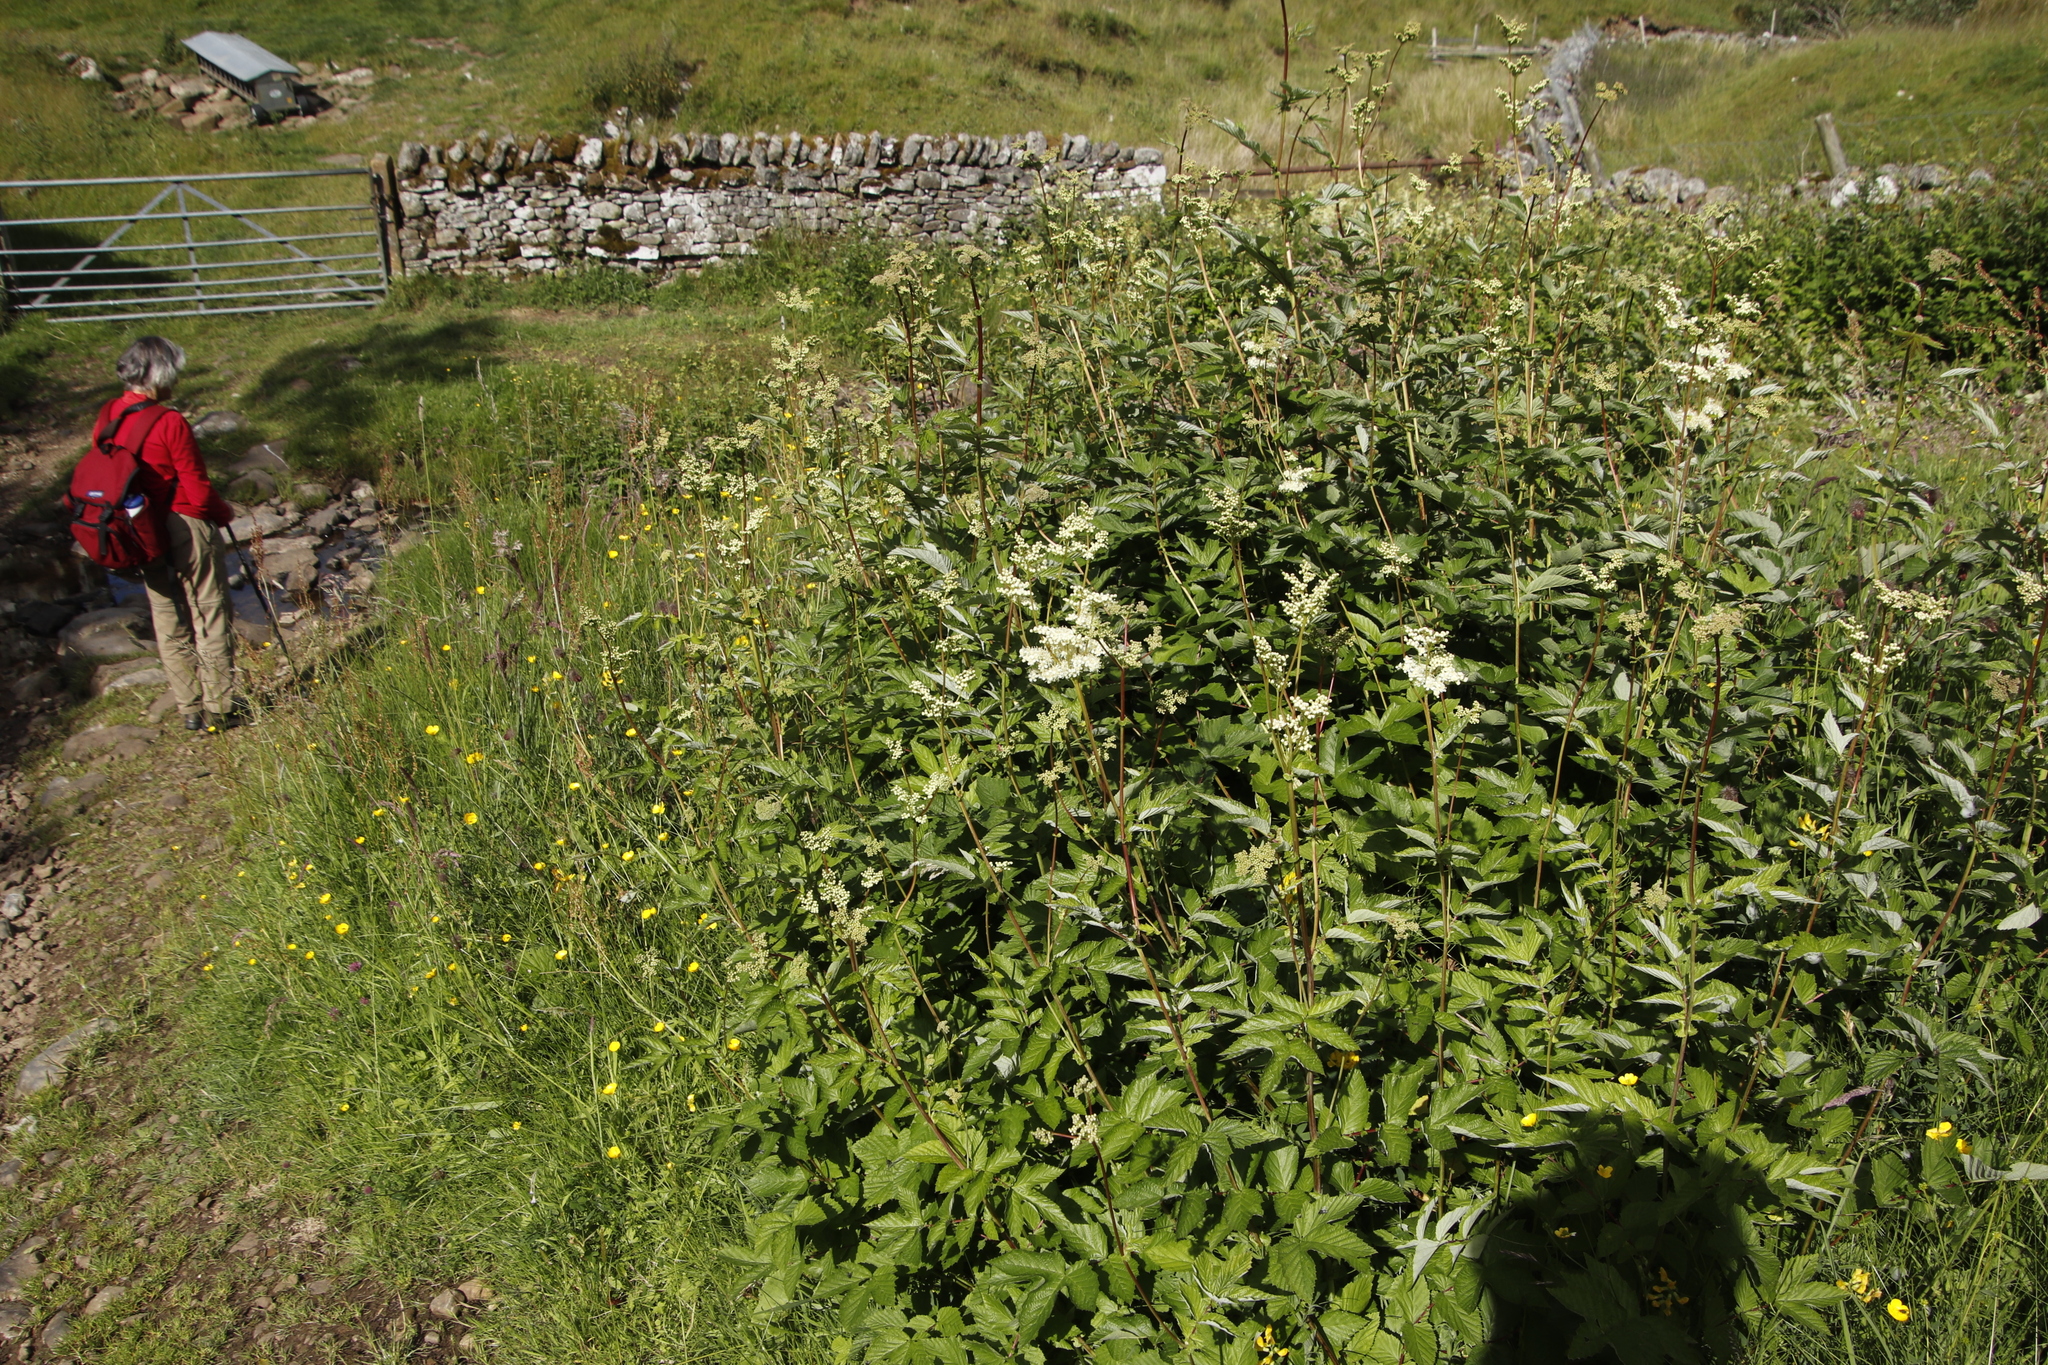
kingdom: Plantae
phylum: Tracheophyta
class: Magnoliopsida
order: Rosales
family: Rosaceae
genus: Filipendula
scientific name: Filipendula ulmaria
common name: Meadowsweet
